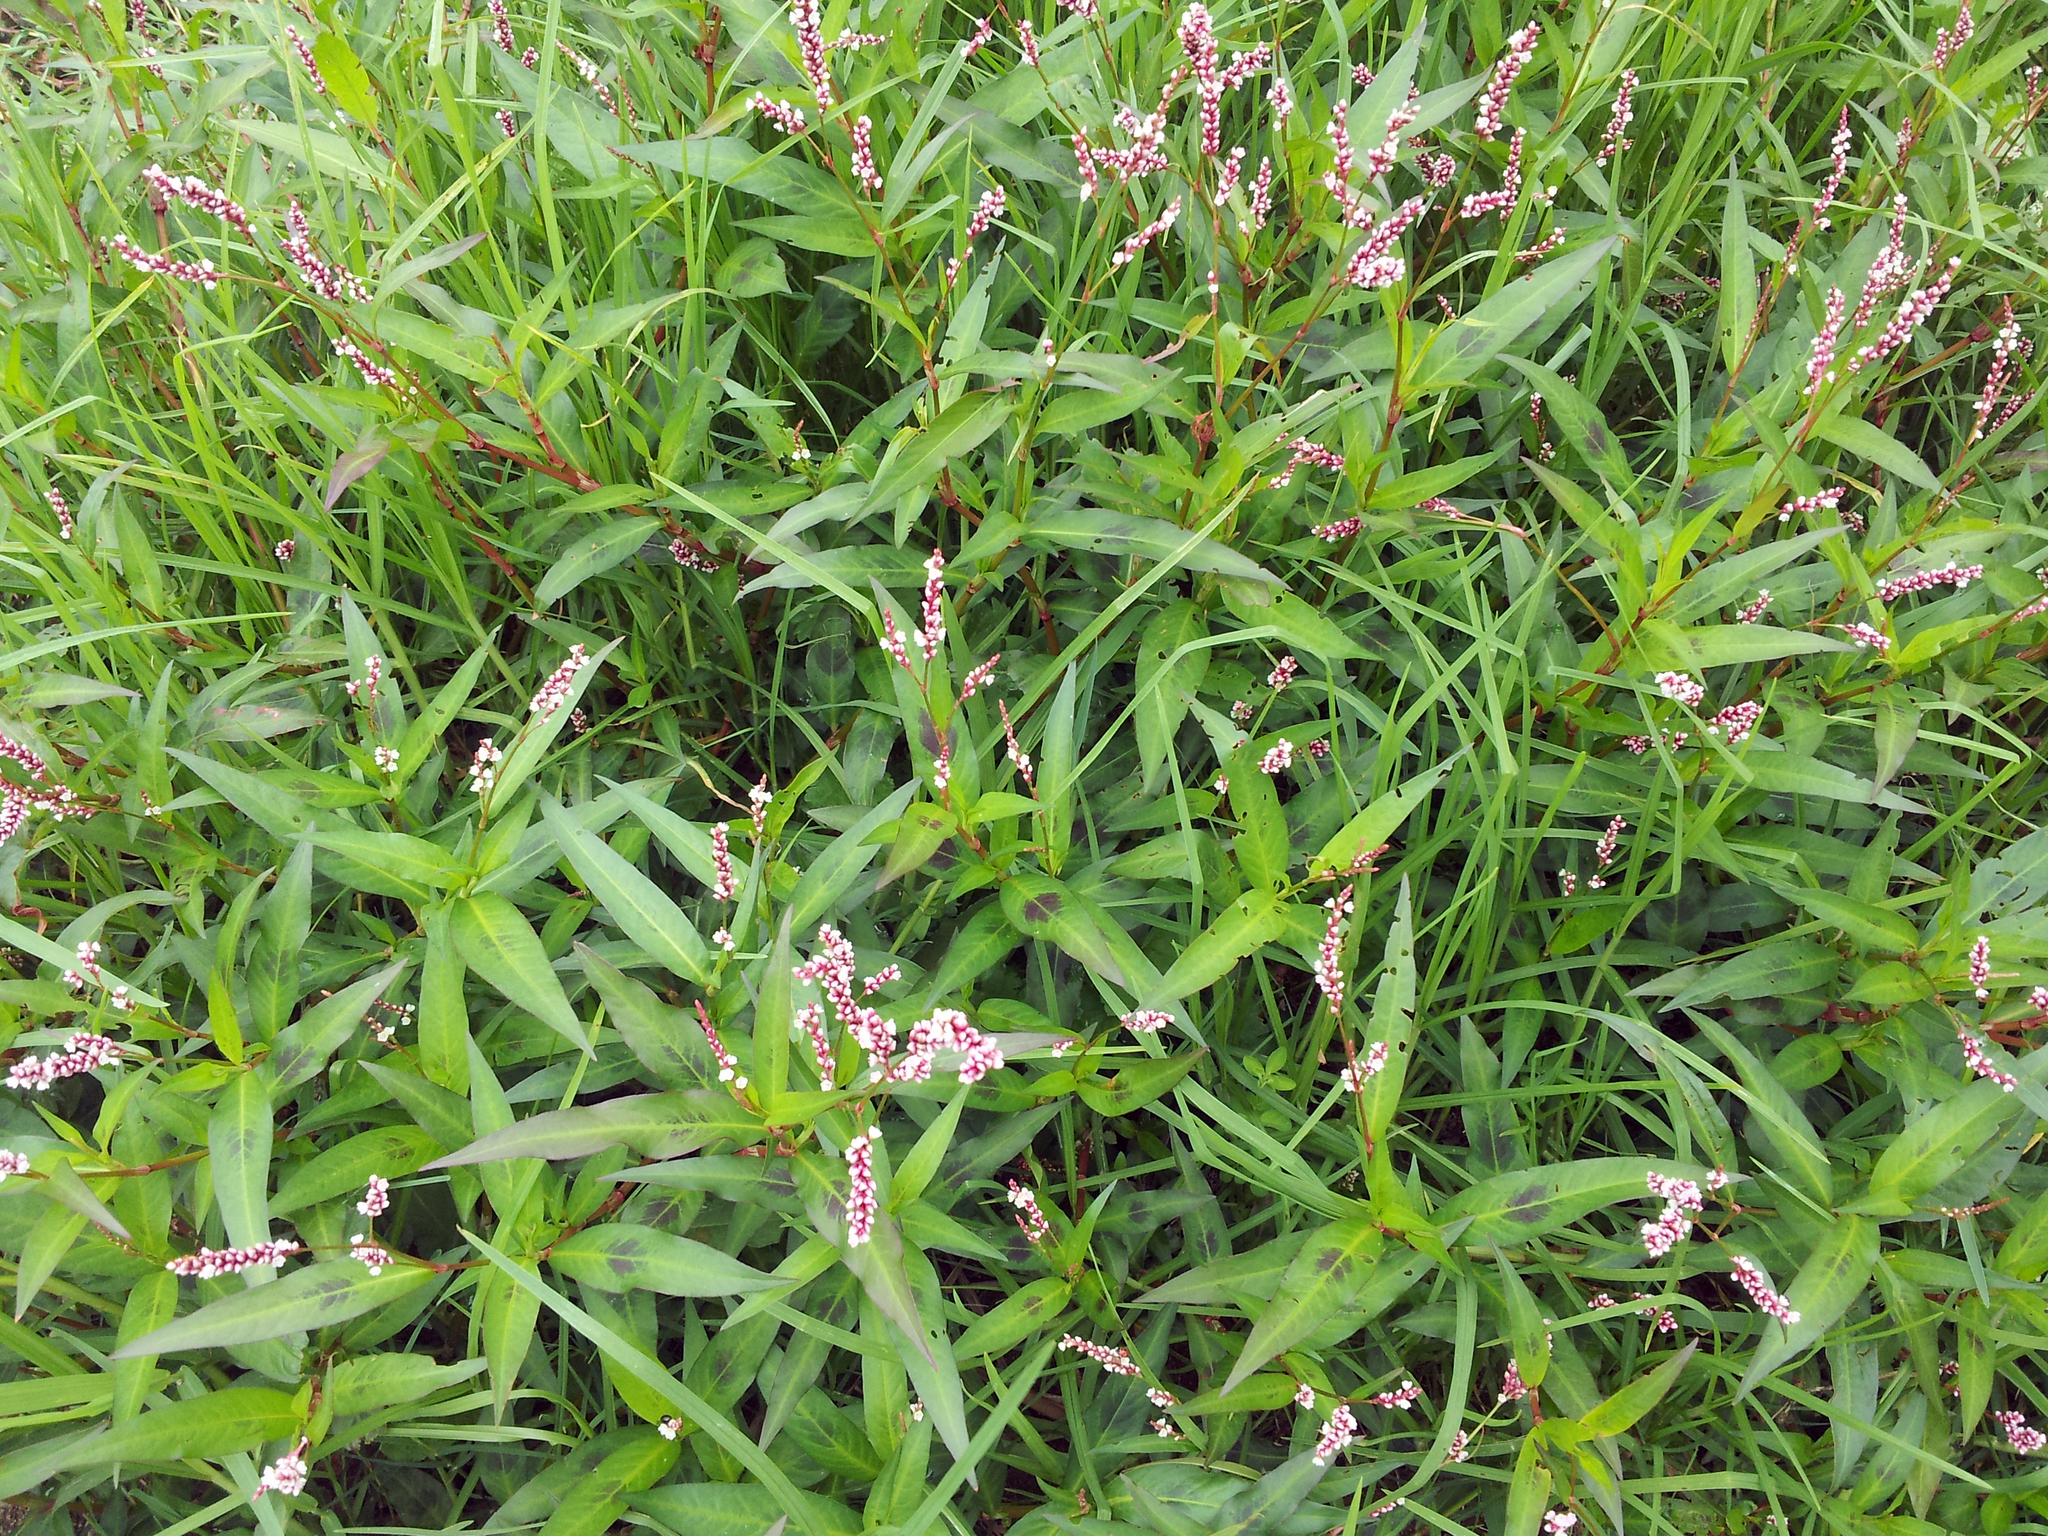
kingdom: Plantae
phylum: Tracheophyta
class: Magnoliopsida
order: Caryophyllales
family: Polygonaceae
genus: Persicaria
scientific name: Persicaria decipiens
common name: Willow-weed
